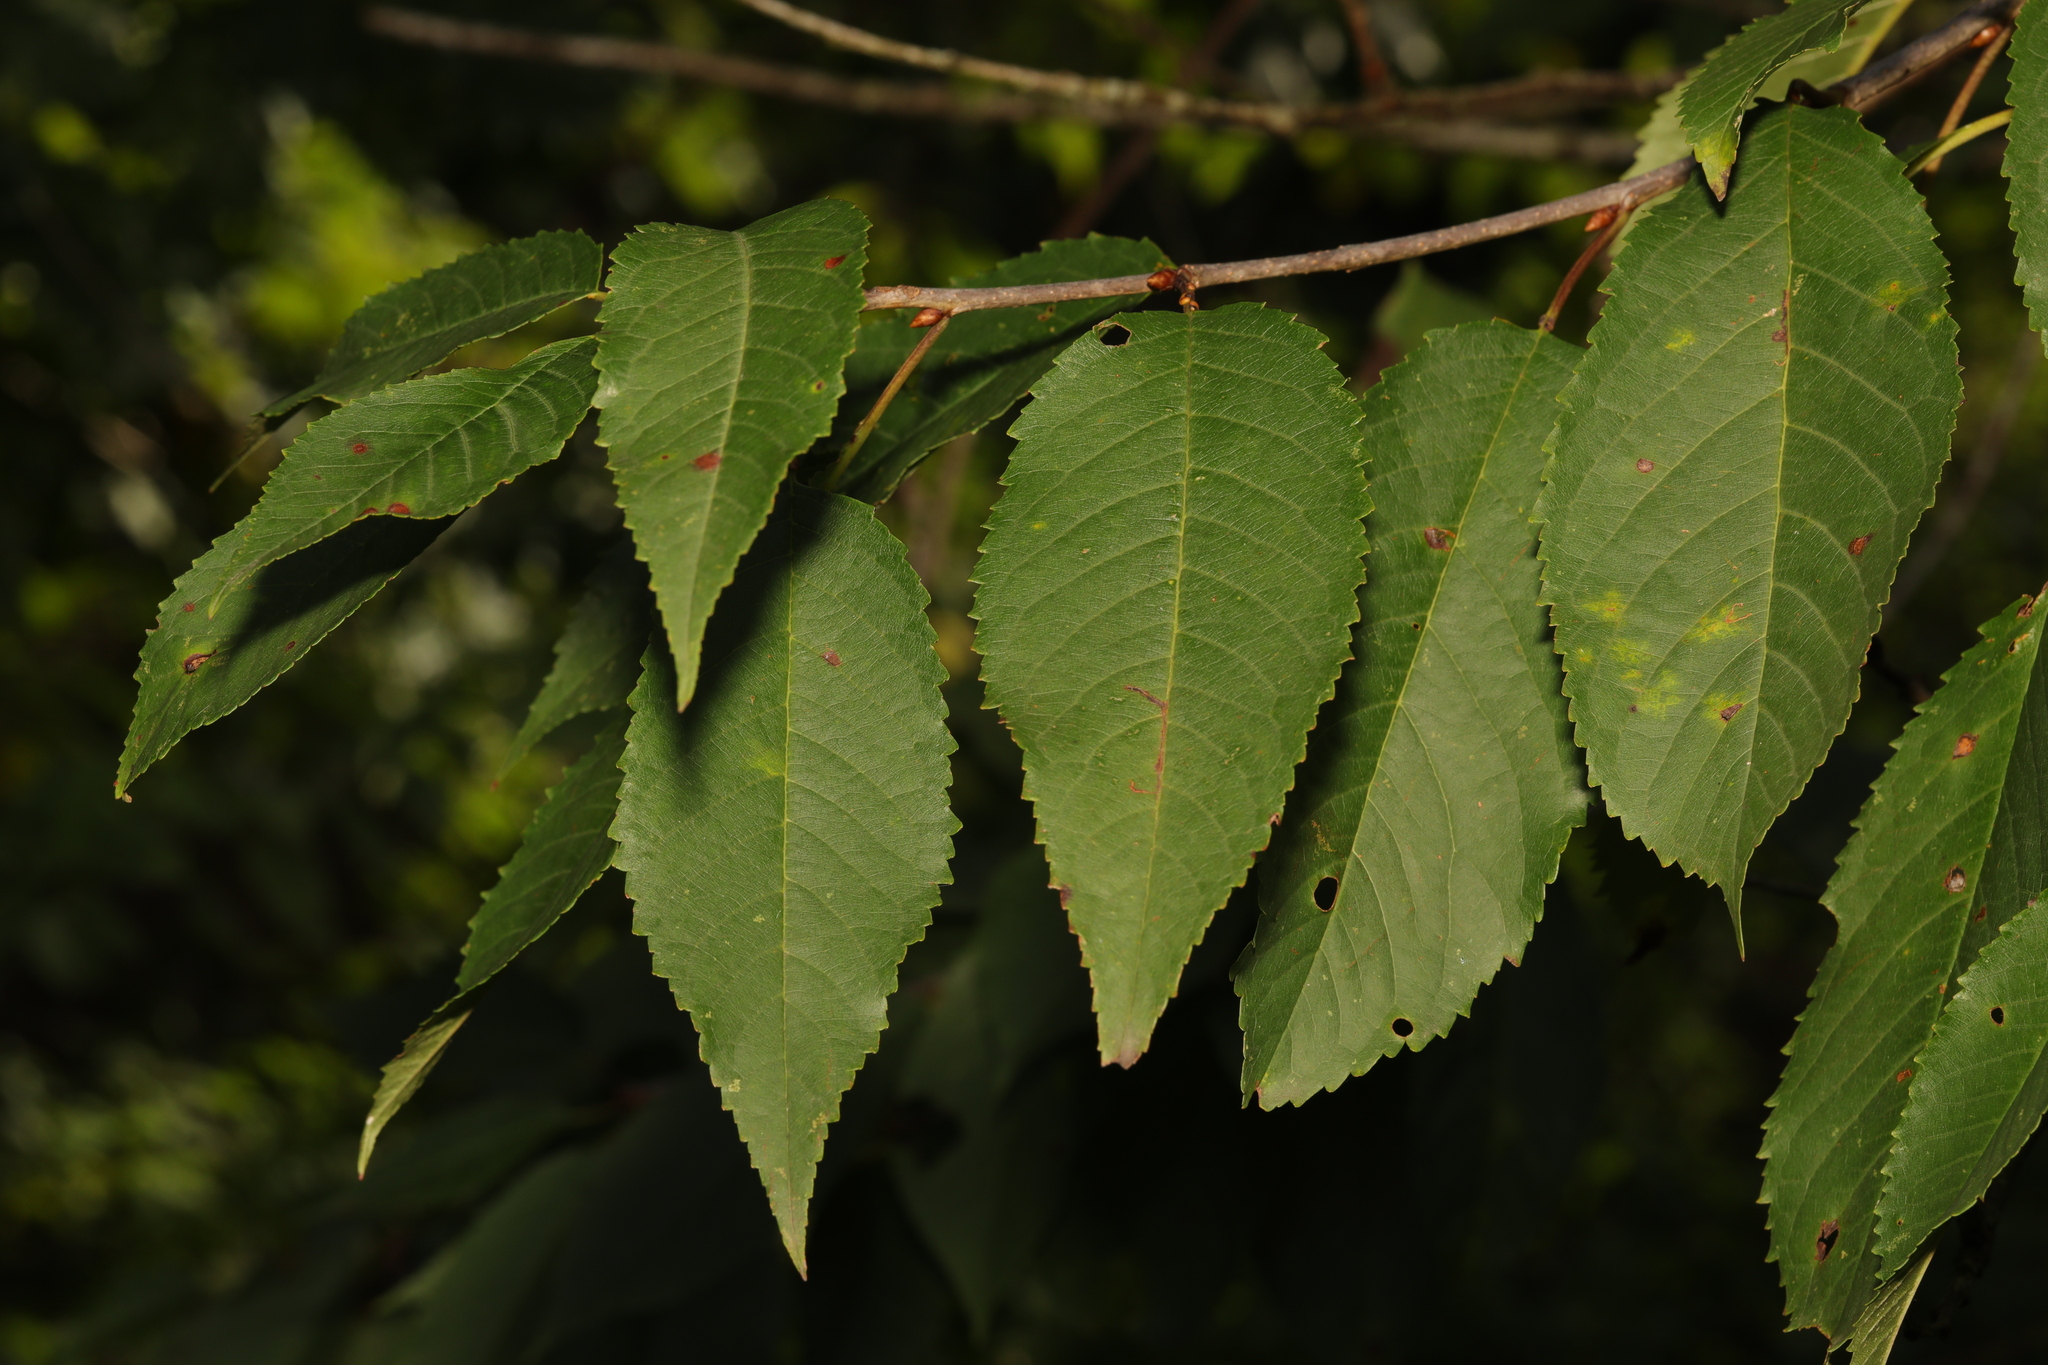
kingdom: Plantae
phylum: Tracheophyta
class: Magnoliopsida
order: Rosales
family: Rosaceae
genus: Prunus
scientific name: Prunus avium
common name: Sweet cherry
